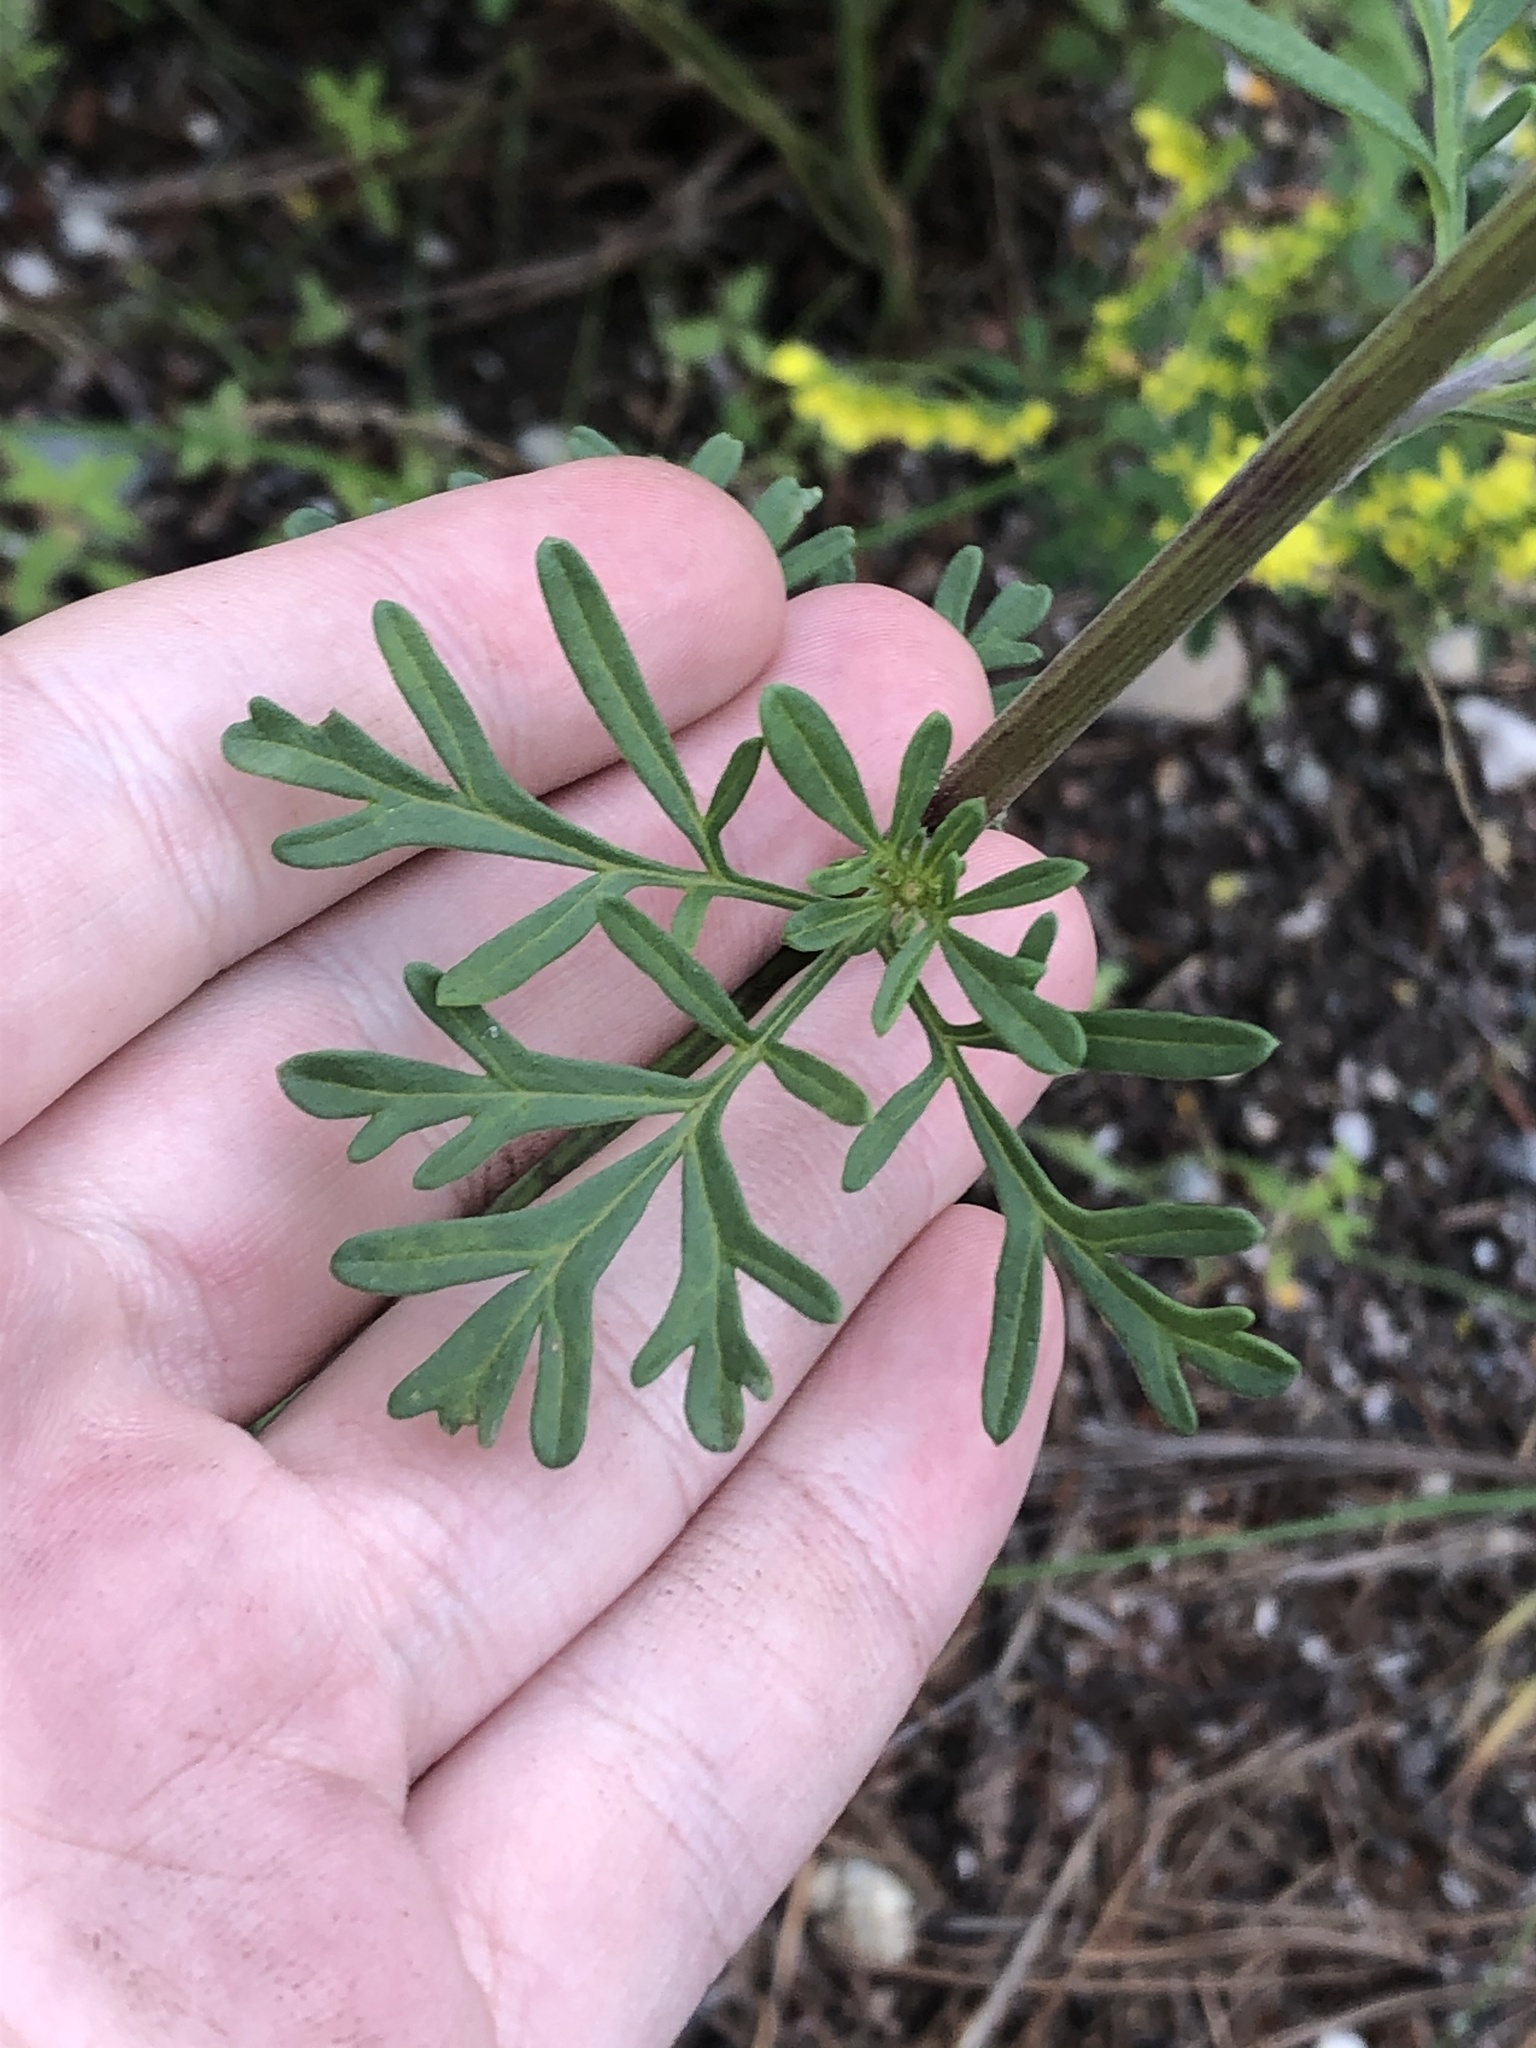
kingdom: Plantae
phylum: Tracheophyta
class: Magnoliopsida
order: Asterales
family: Asteraceae
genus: Hymenothrix
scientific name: Hymenothrix dissecta
